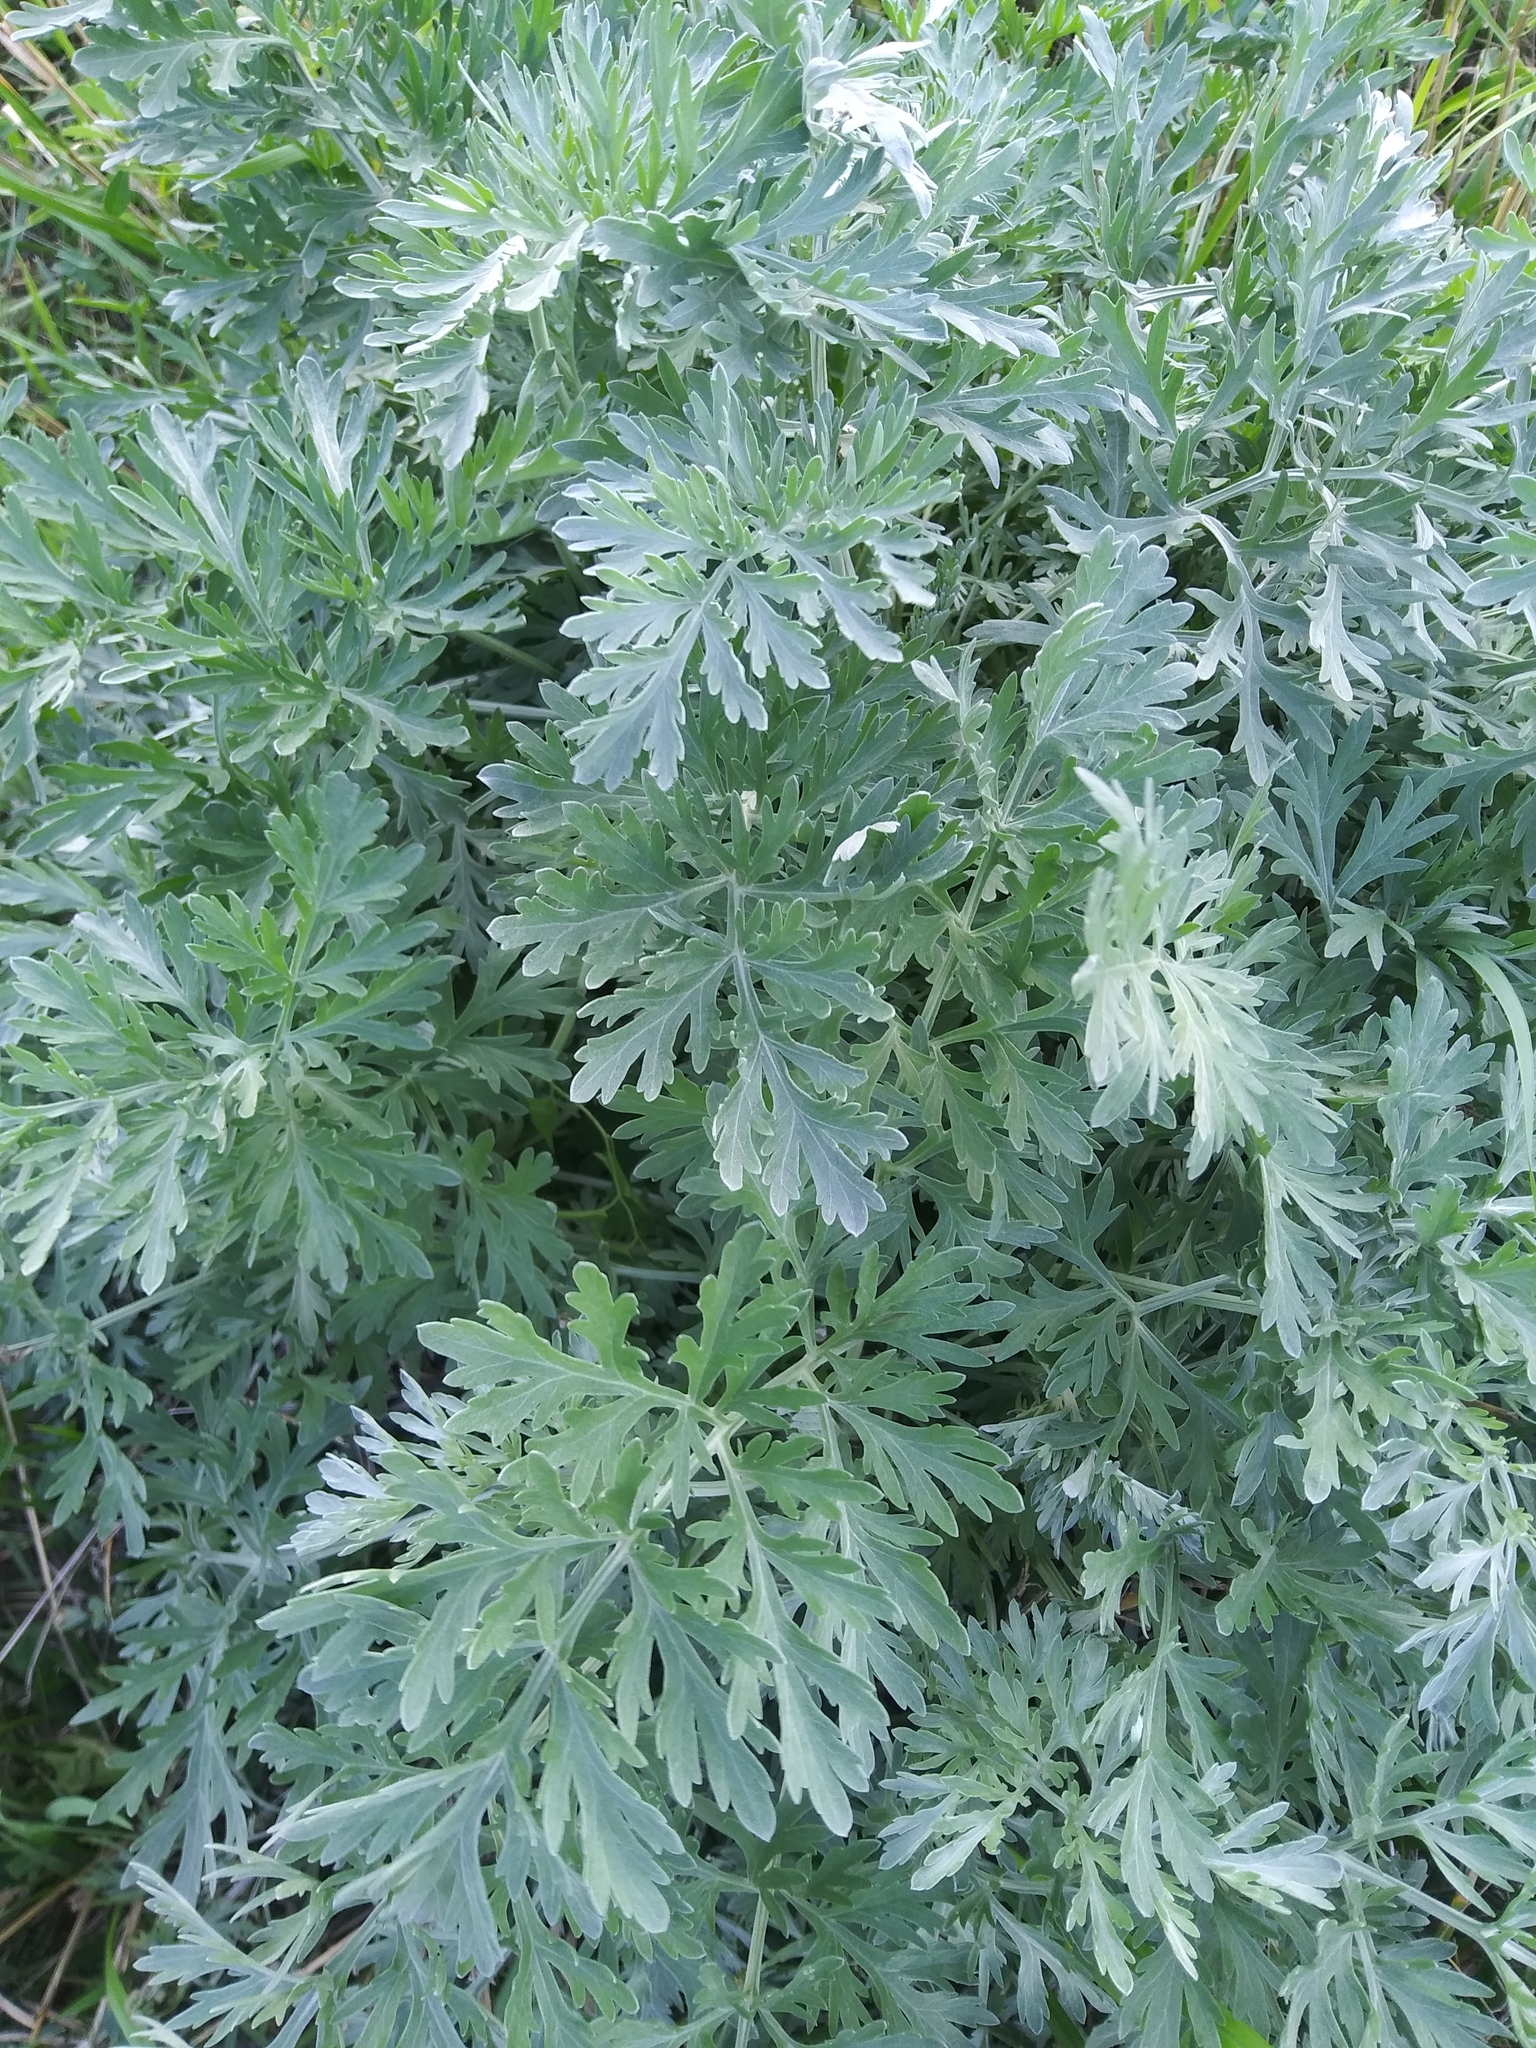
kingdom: Plantae
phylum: Tracheophyta
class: Magnoliopsida
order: Asterales
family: Asteraceae
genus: Artemisia
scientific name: Artemisia absinthium
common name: Wormwood
